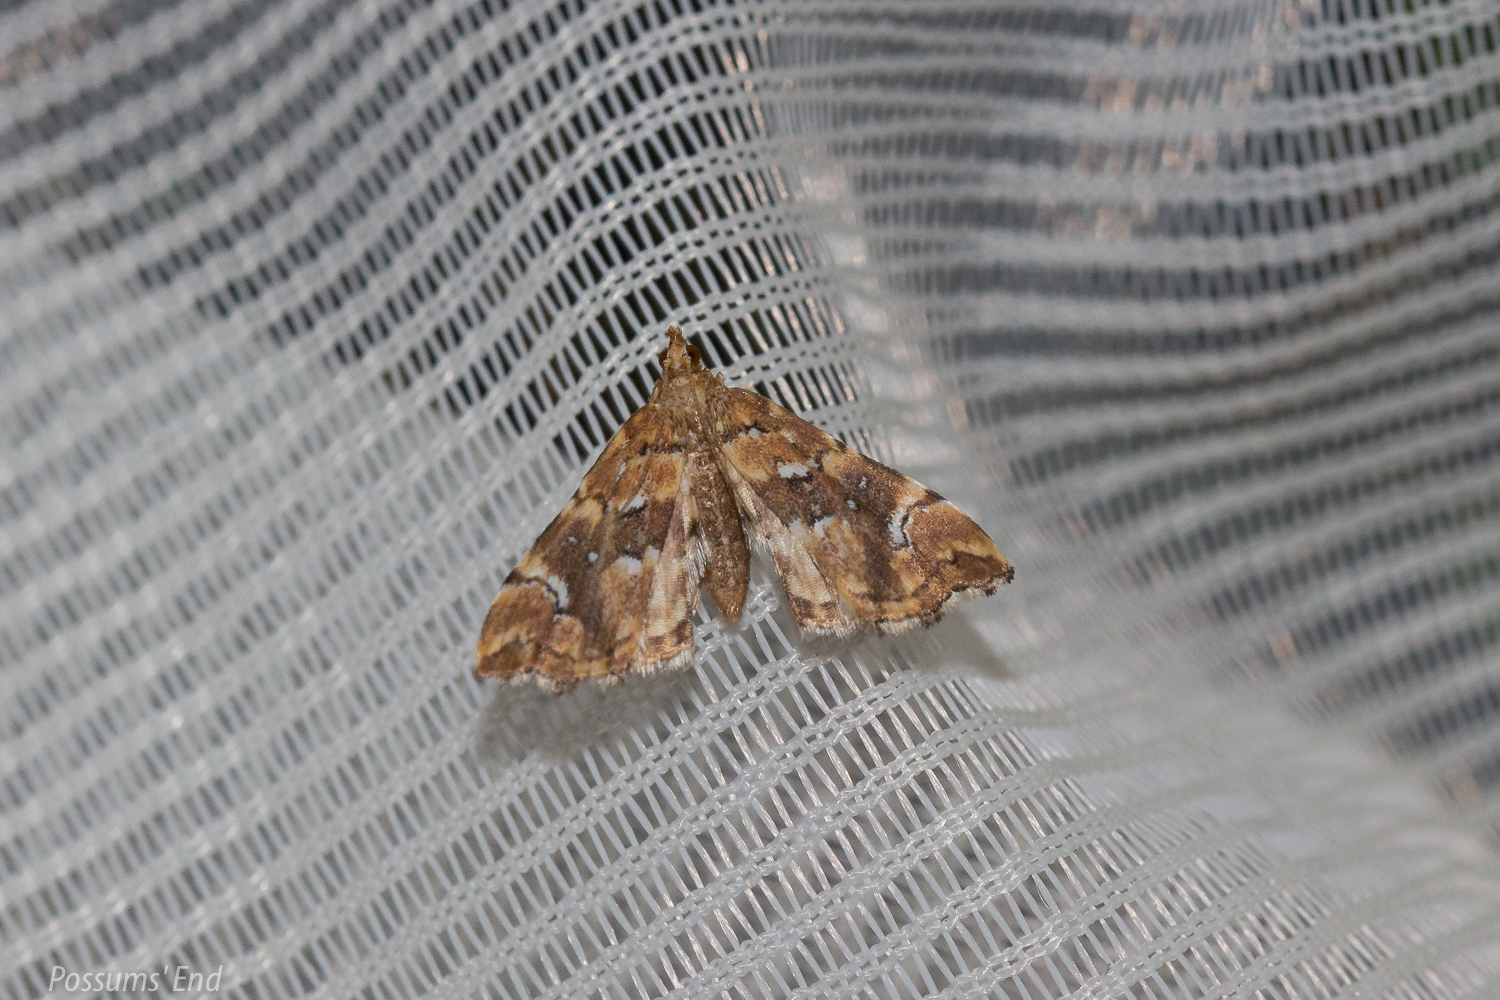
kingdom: Animalia
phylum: Arthropoda
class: Insecta
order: Lepidoptera
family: Pyralidae
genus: Musotima
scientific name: Musotima nitidalis
